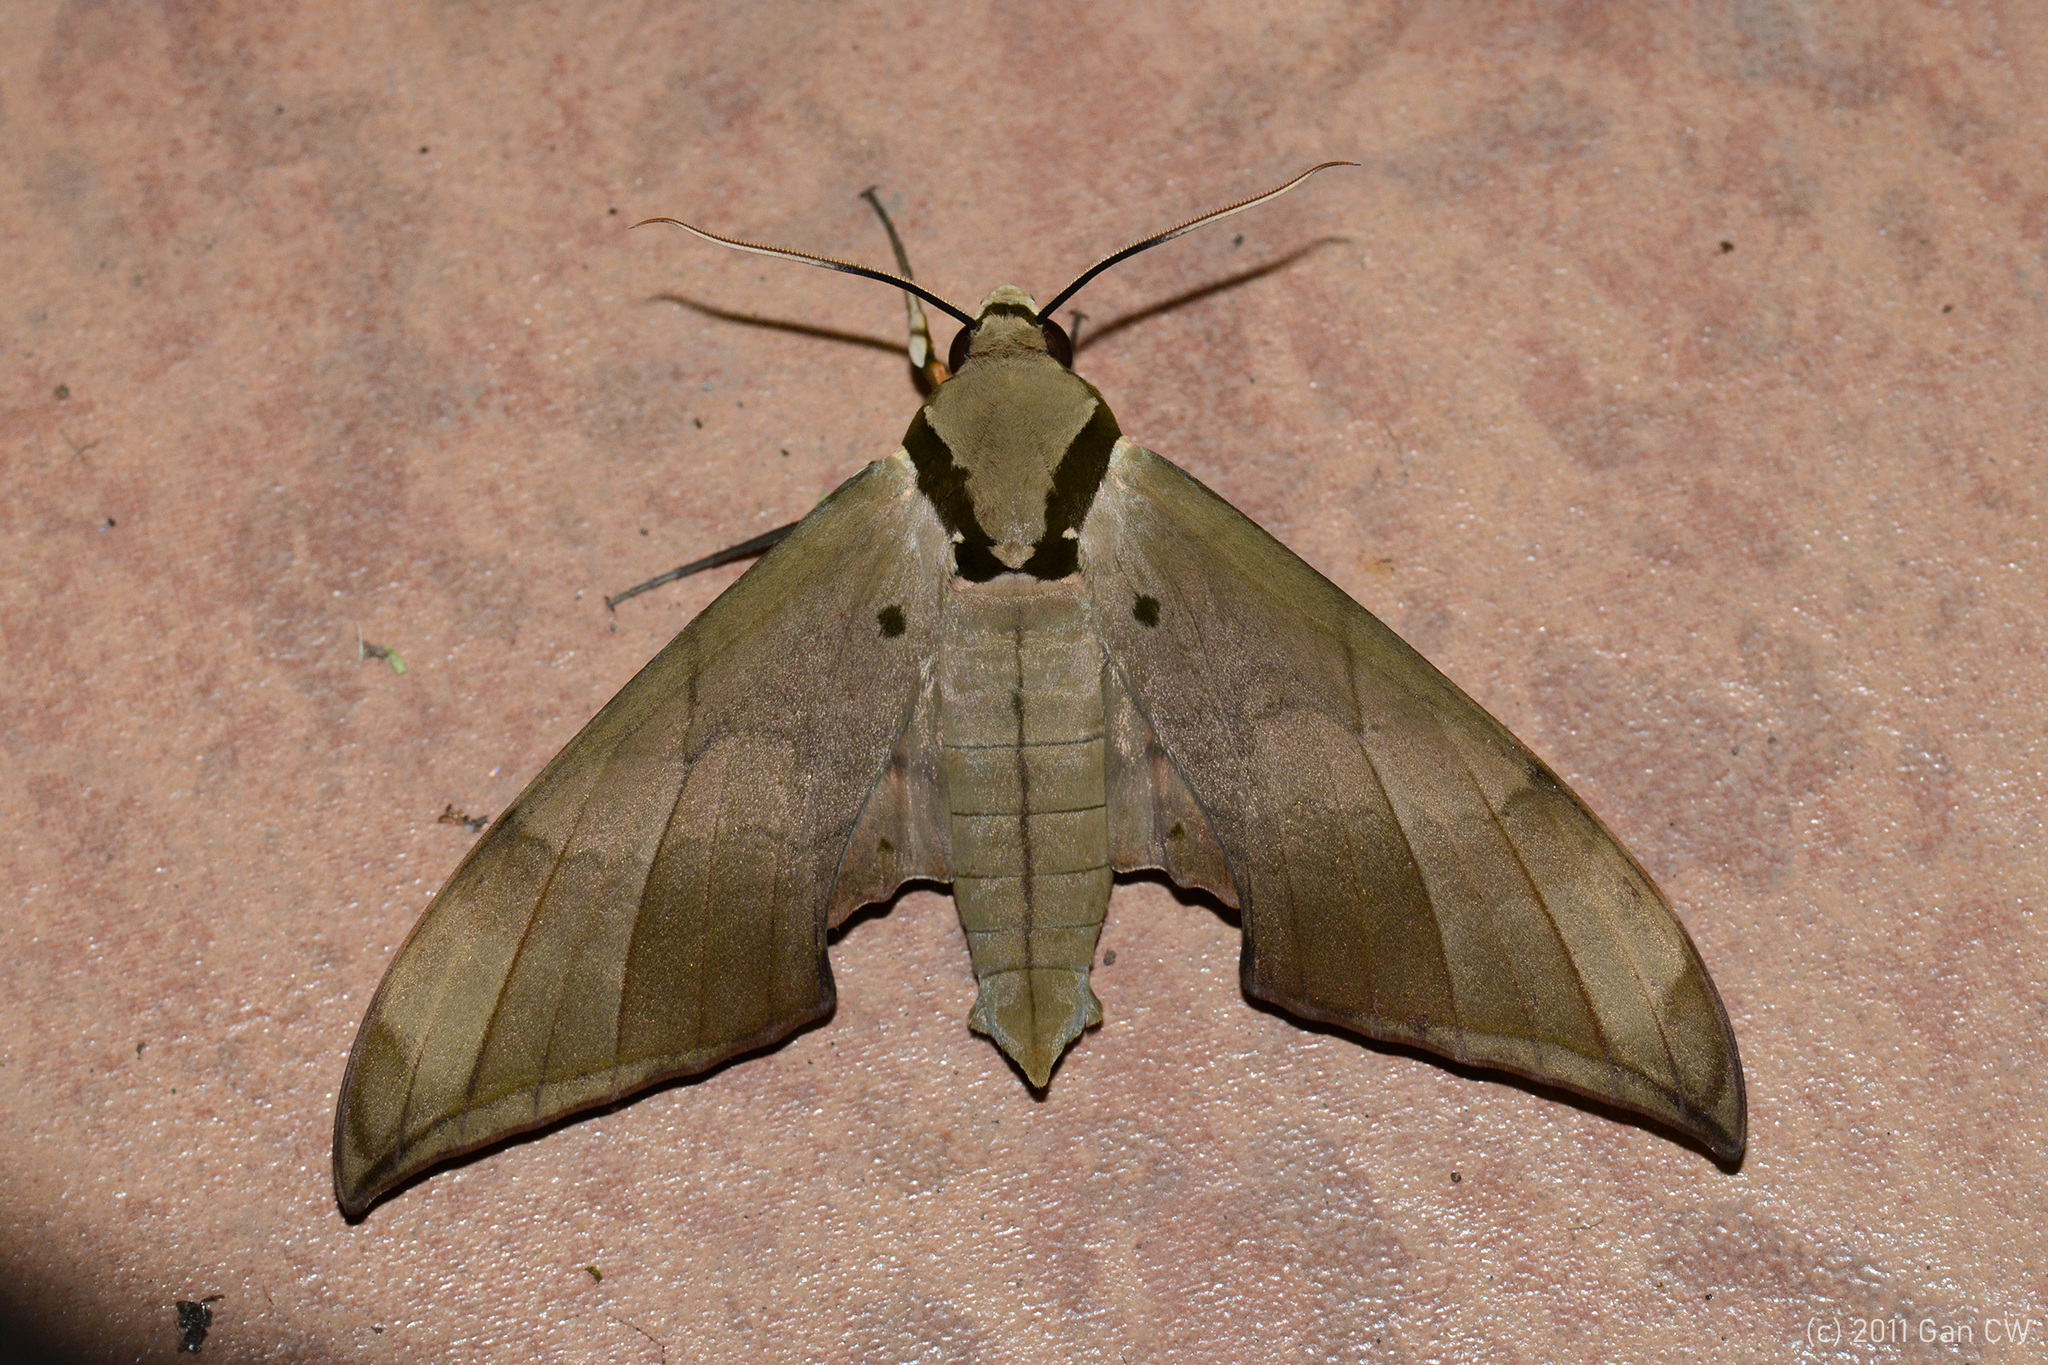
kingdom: Animalia
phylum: Arthropoda
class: Insecta
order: Lepidoptera
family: Sphingidae
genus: Ambulyx
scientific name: Ambulyx staudingeri
